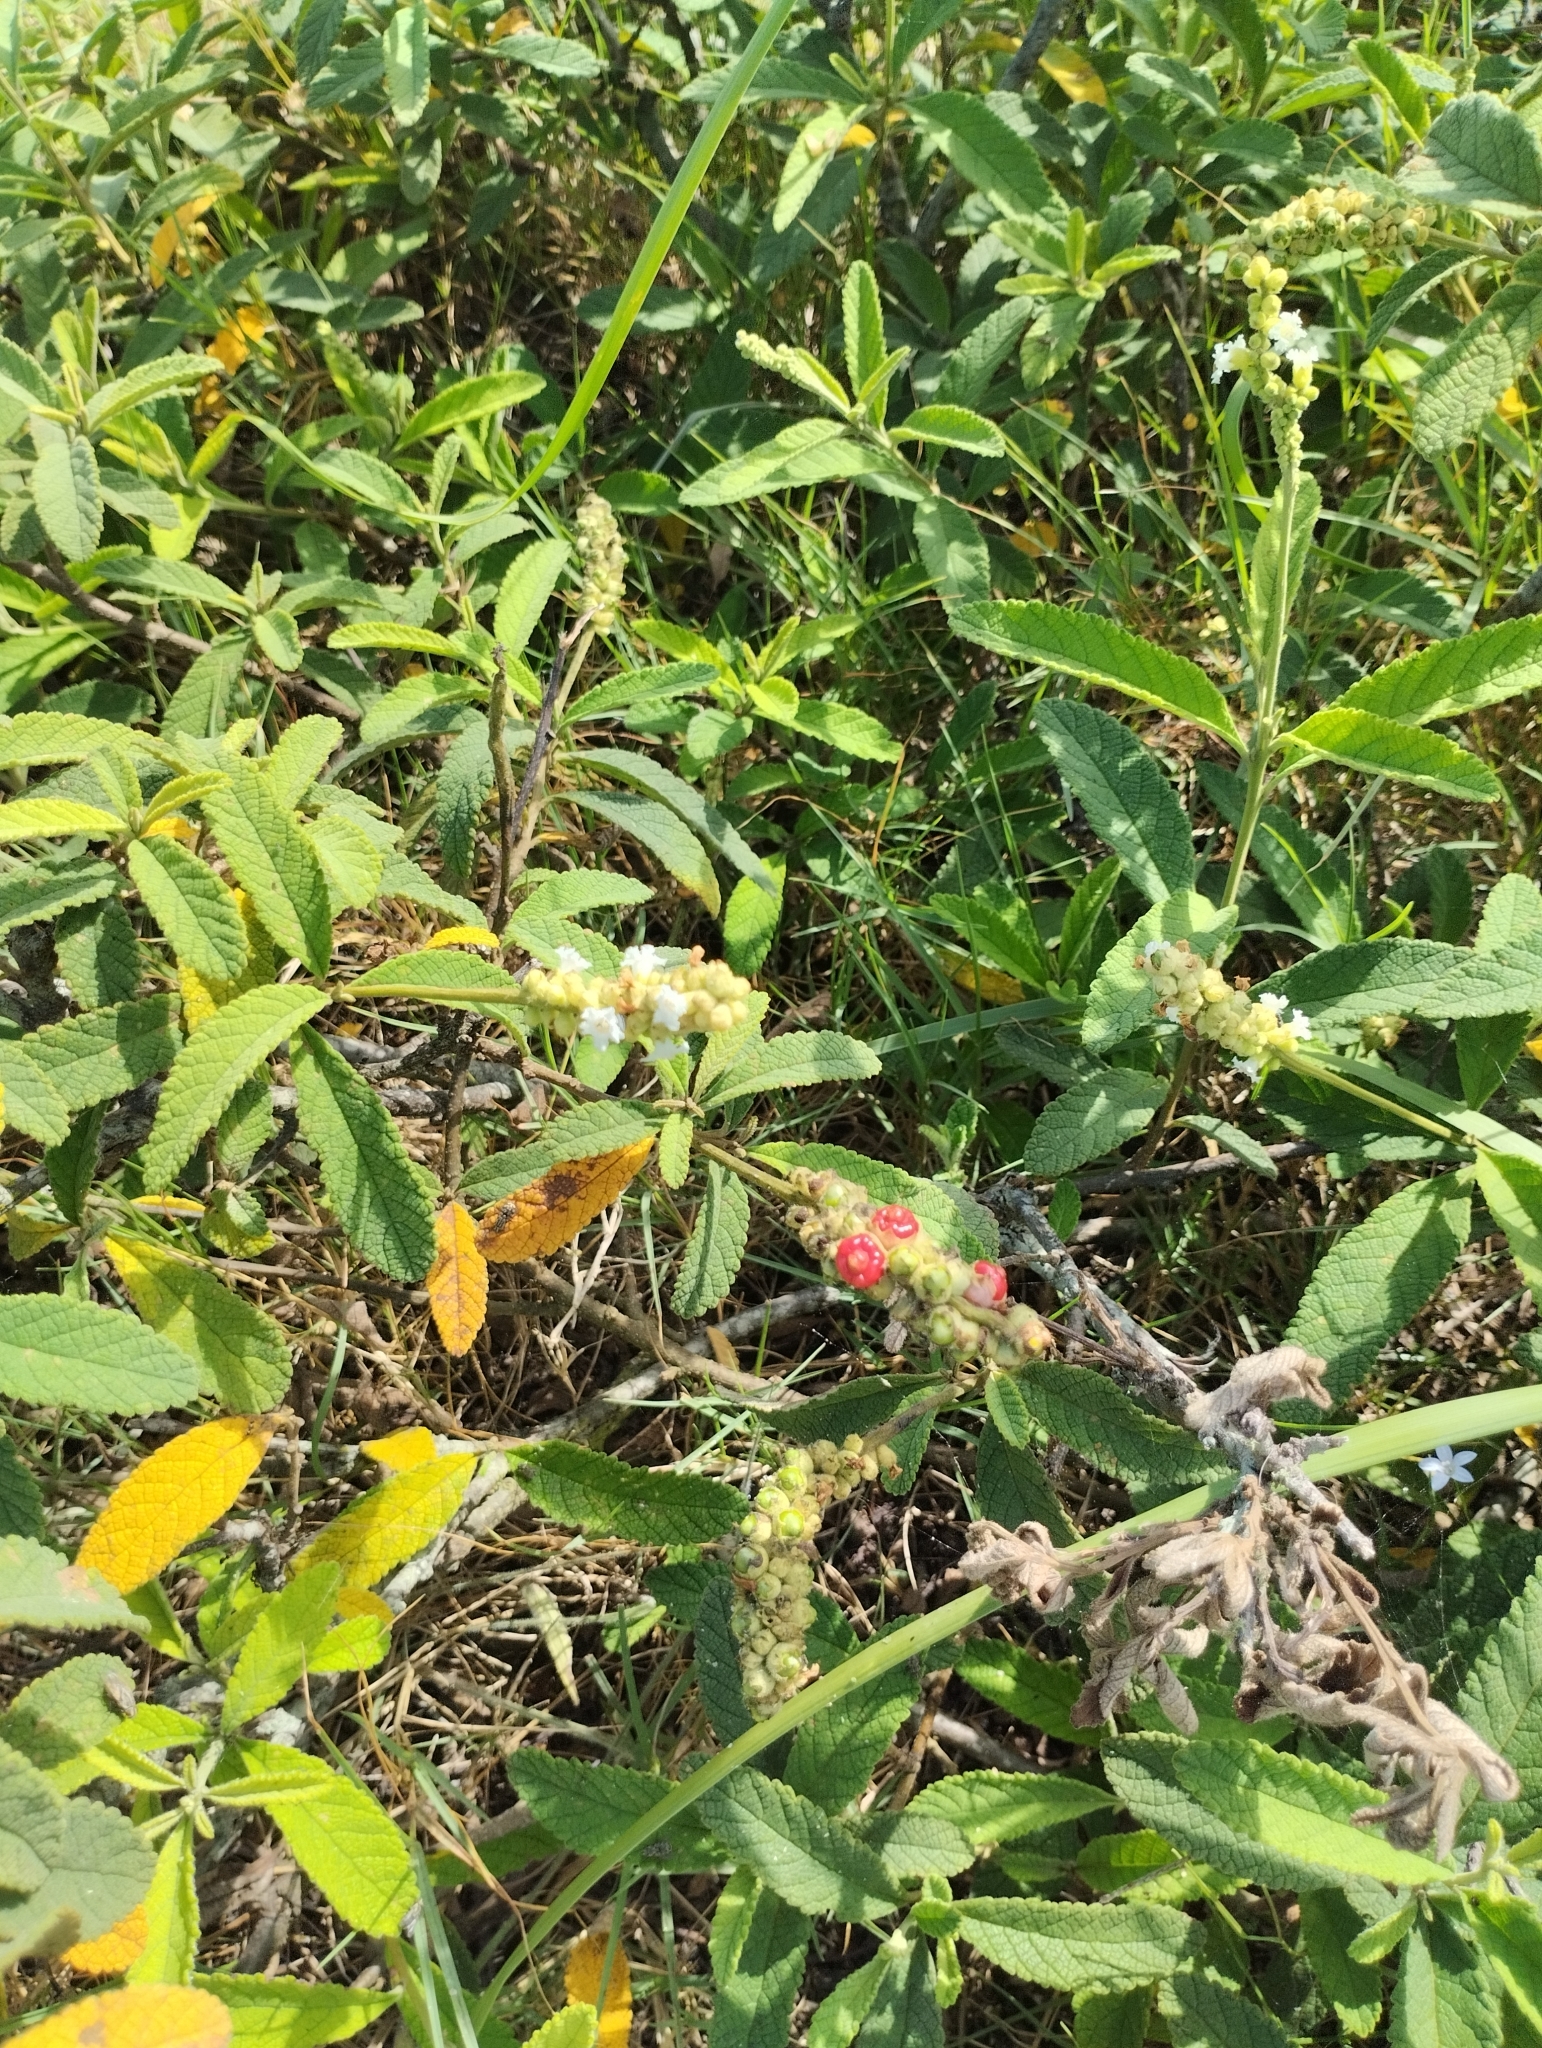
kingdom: Plantae
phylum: Tracheophyta
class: Magnoliopsida
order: Boraginales
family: Cordiaceae
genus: Varronia
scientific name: Varronia curassavica
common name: Black sage
